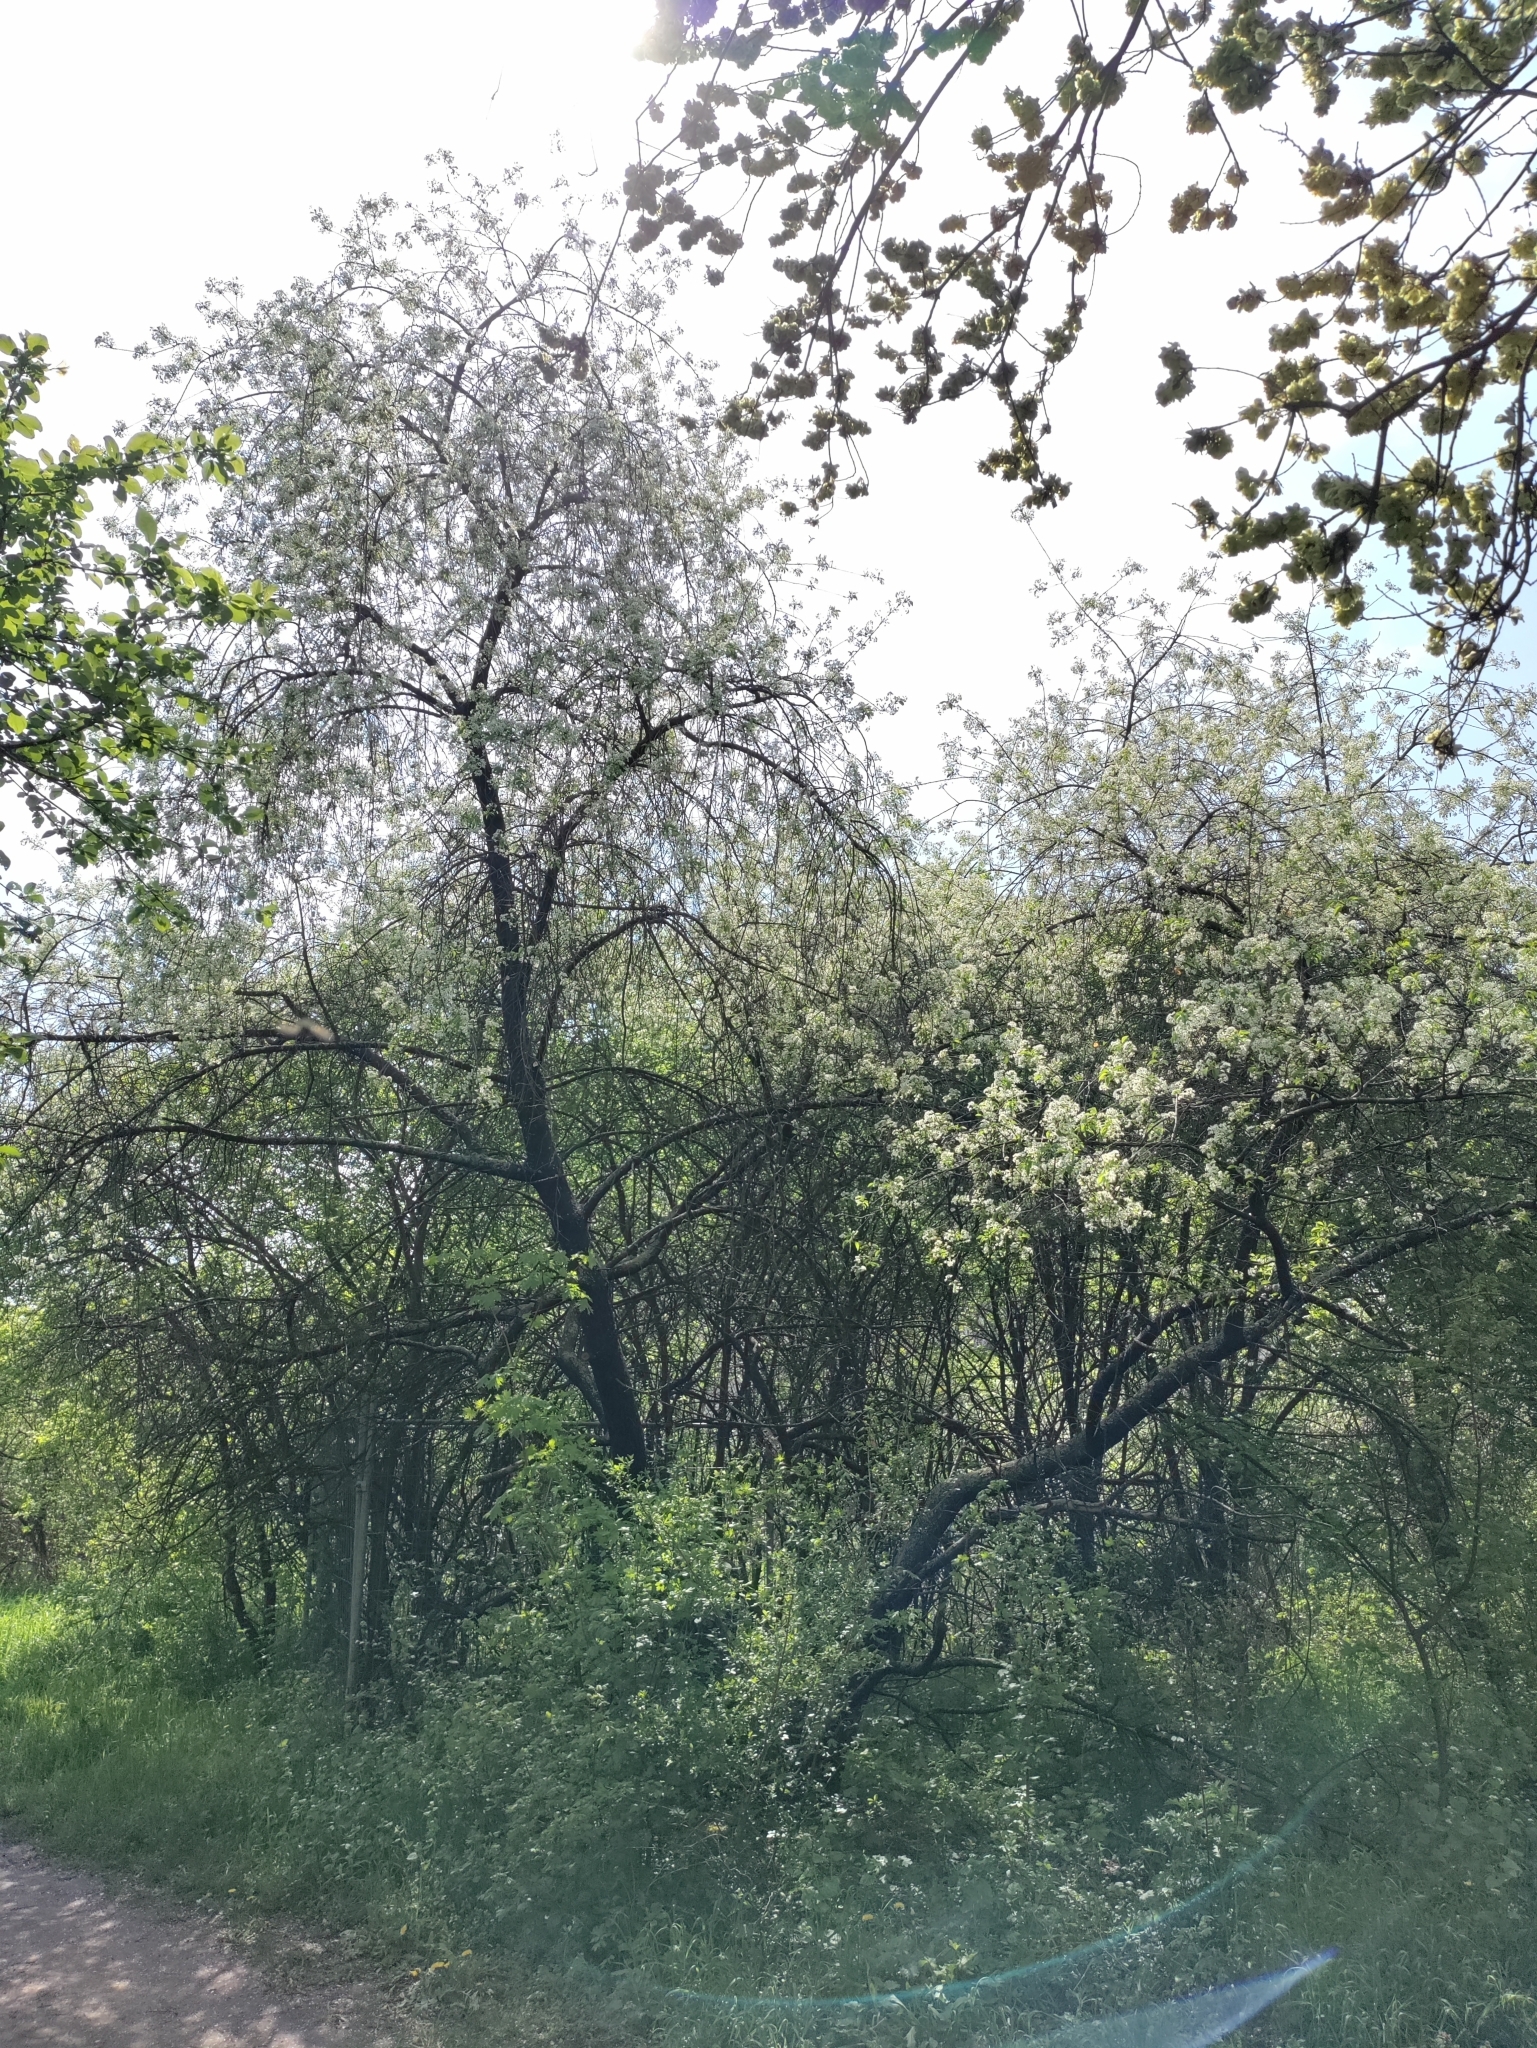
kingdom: Plantae
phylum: Tracheophyta
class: Magnoliopsida
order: Rosales
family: Rosaceae
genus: Prunus
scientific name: Prunus mahaleb
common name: Mahaleb cherry
